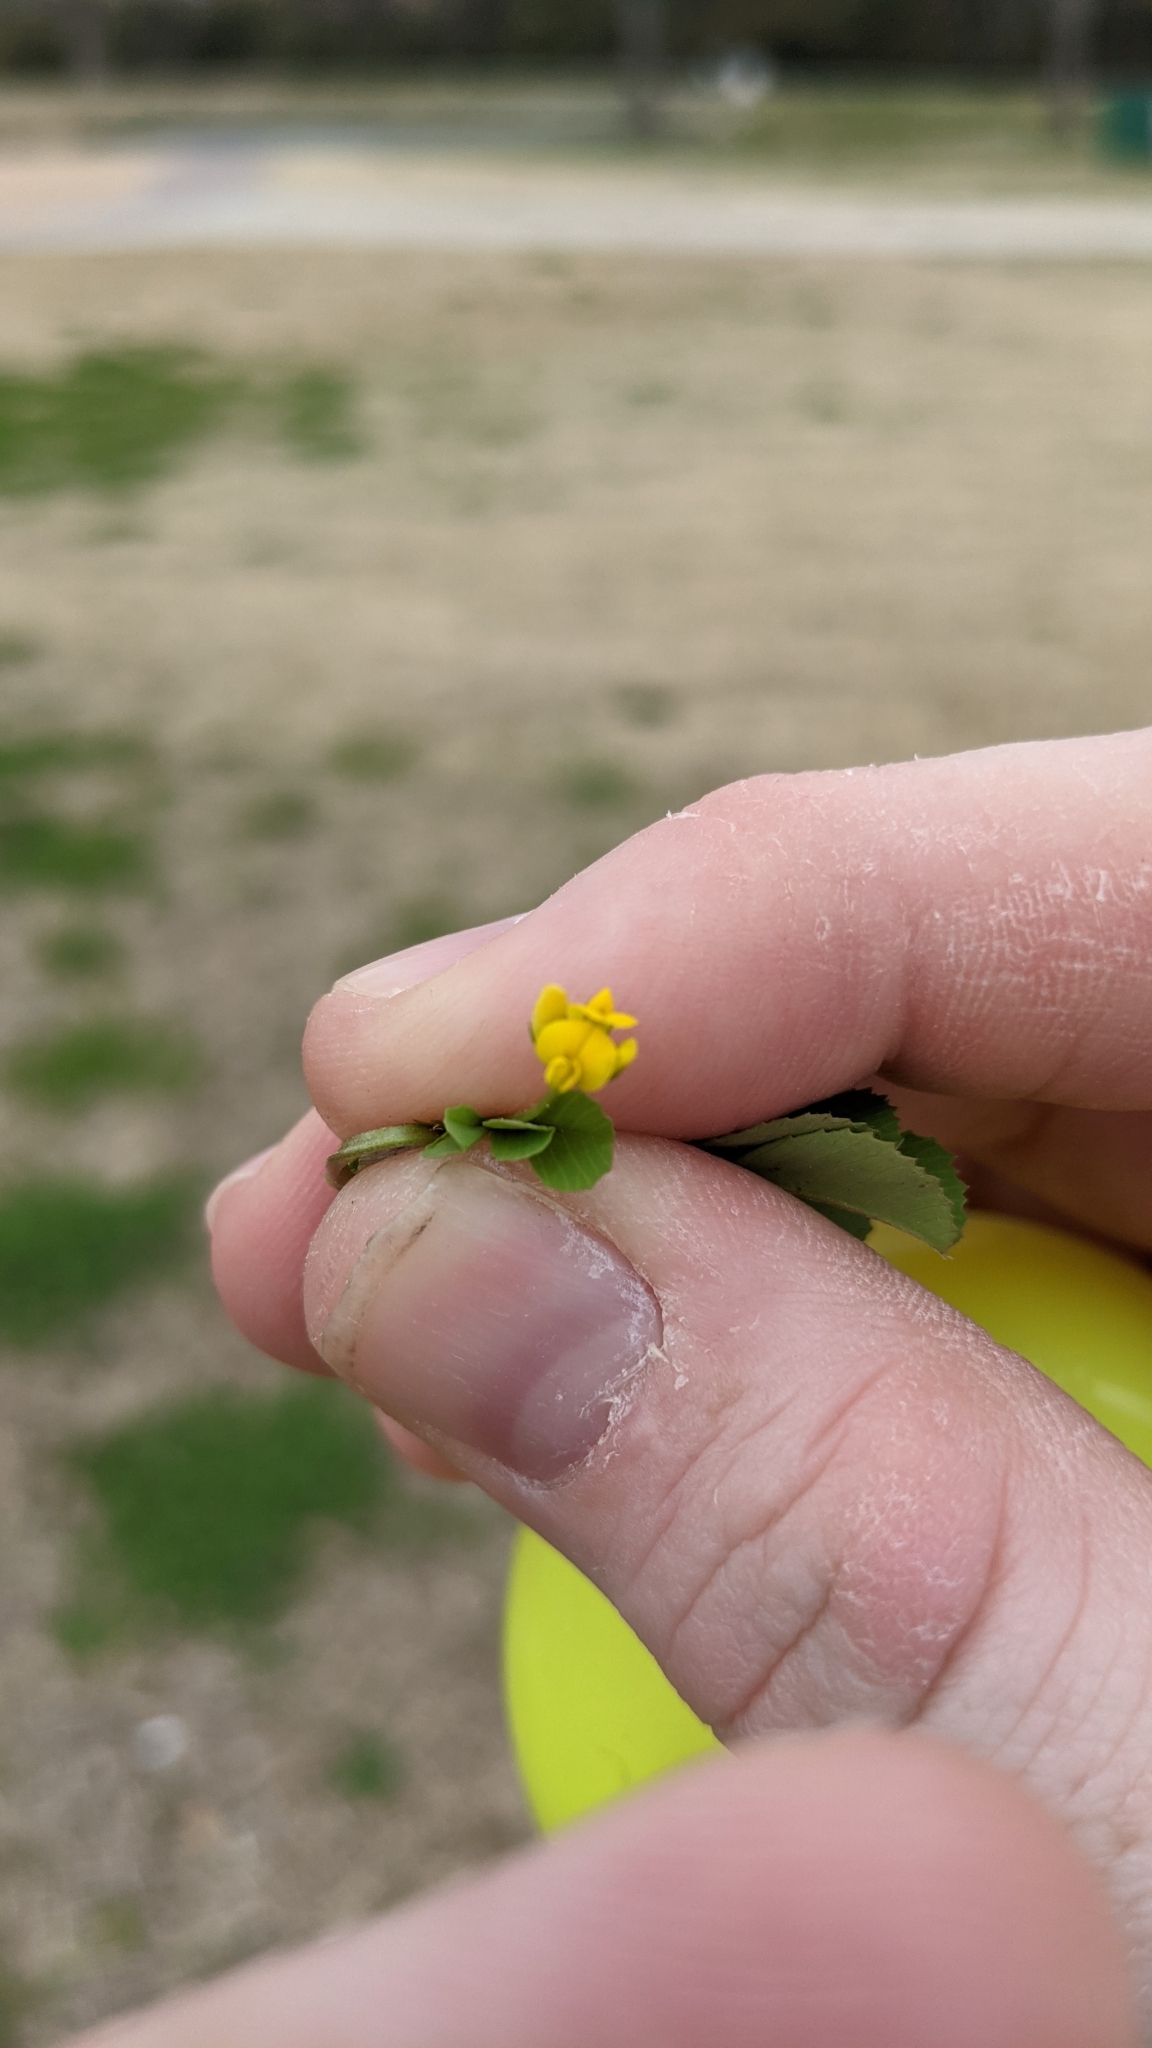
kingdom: Plantae
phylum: Tracheophyta
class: Magnoliopsida
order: Fabales
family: Fabaceae
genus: Trifolium
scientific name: Trifolium dubium
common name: Suckling clover
